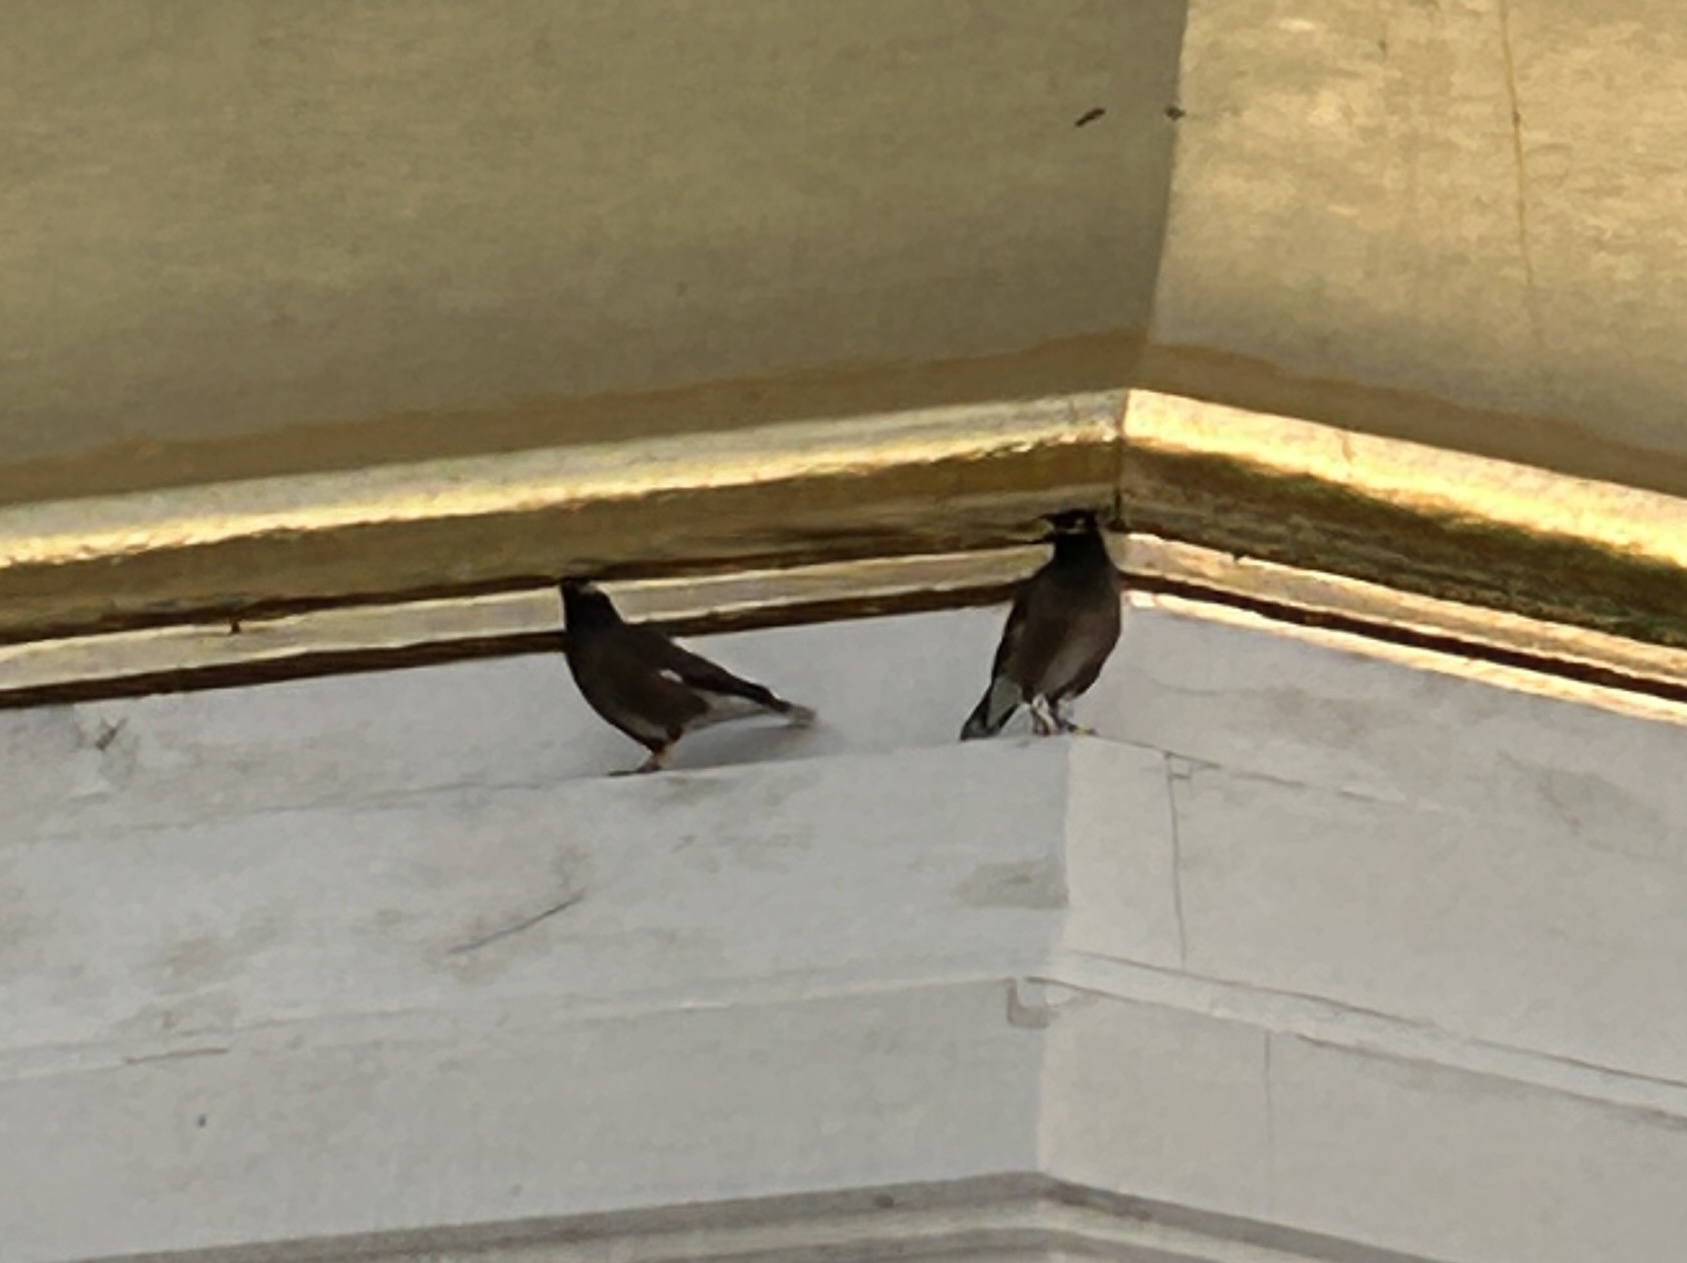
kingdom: Animalia
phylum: Chordata
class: Aves
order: Passeriformes
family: Sturnidae
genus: Acridotheres
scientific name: Acridotheres tristis
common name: Common myna
